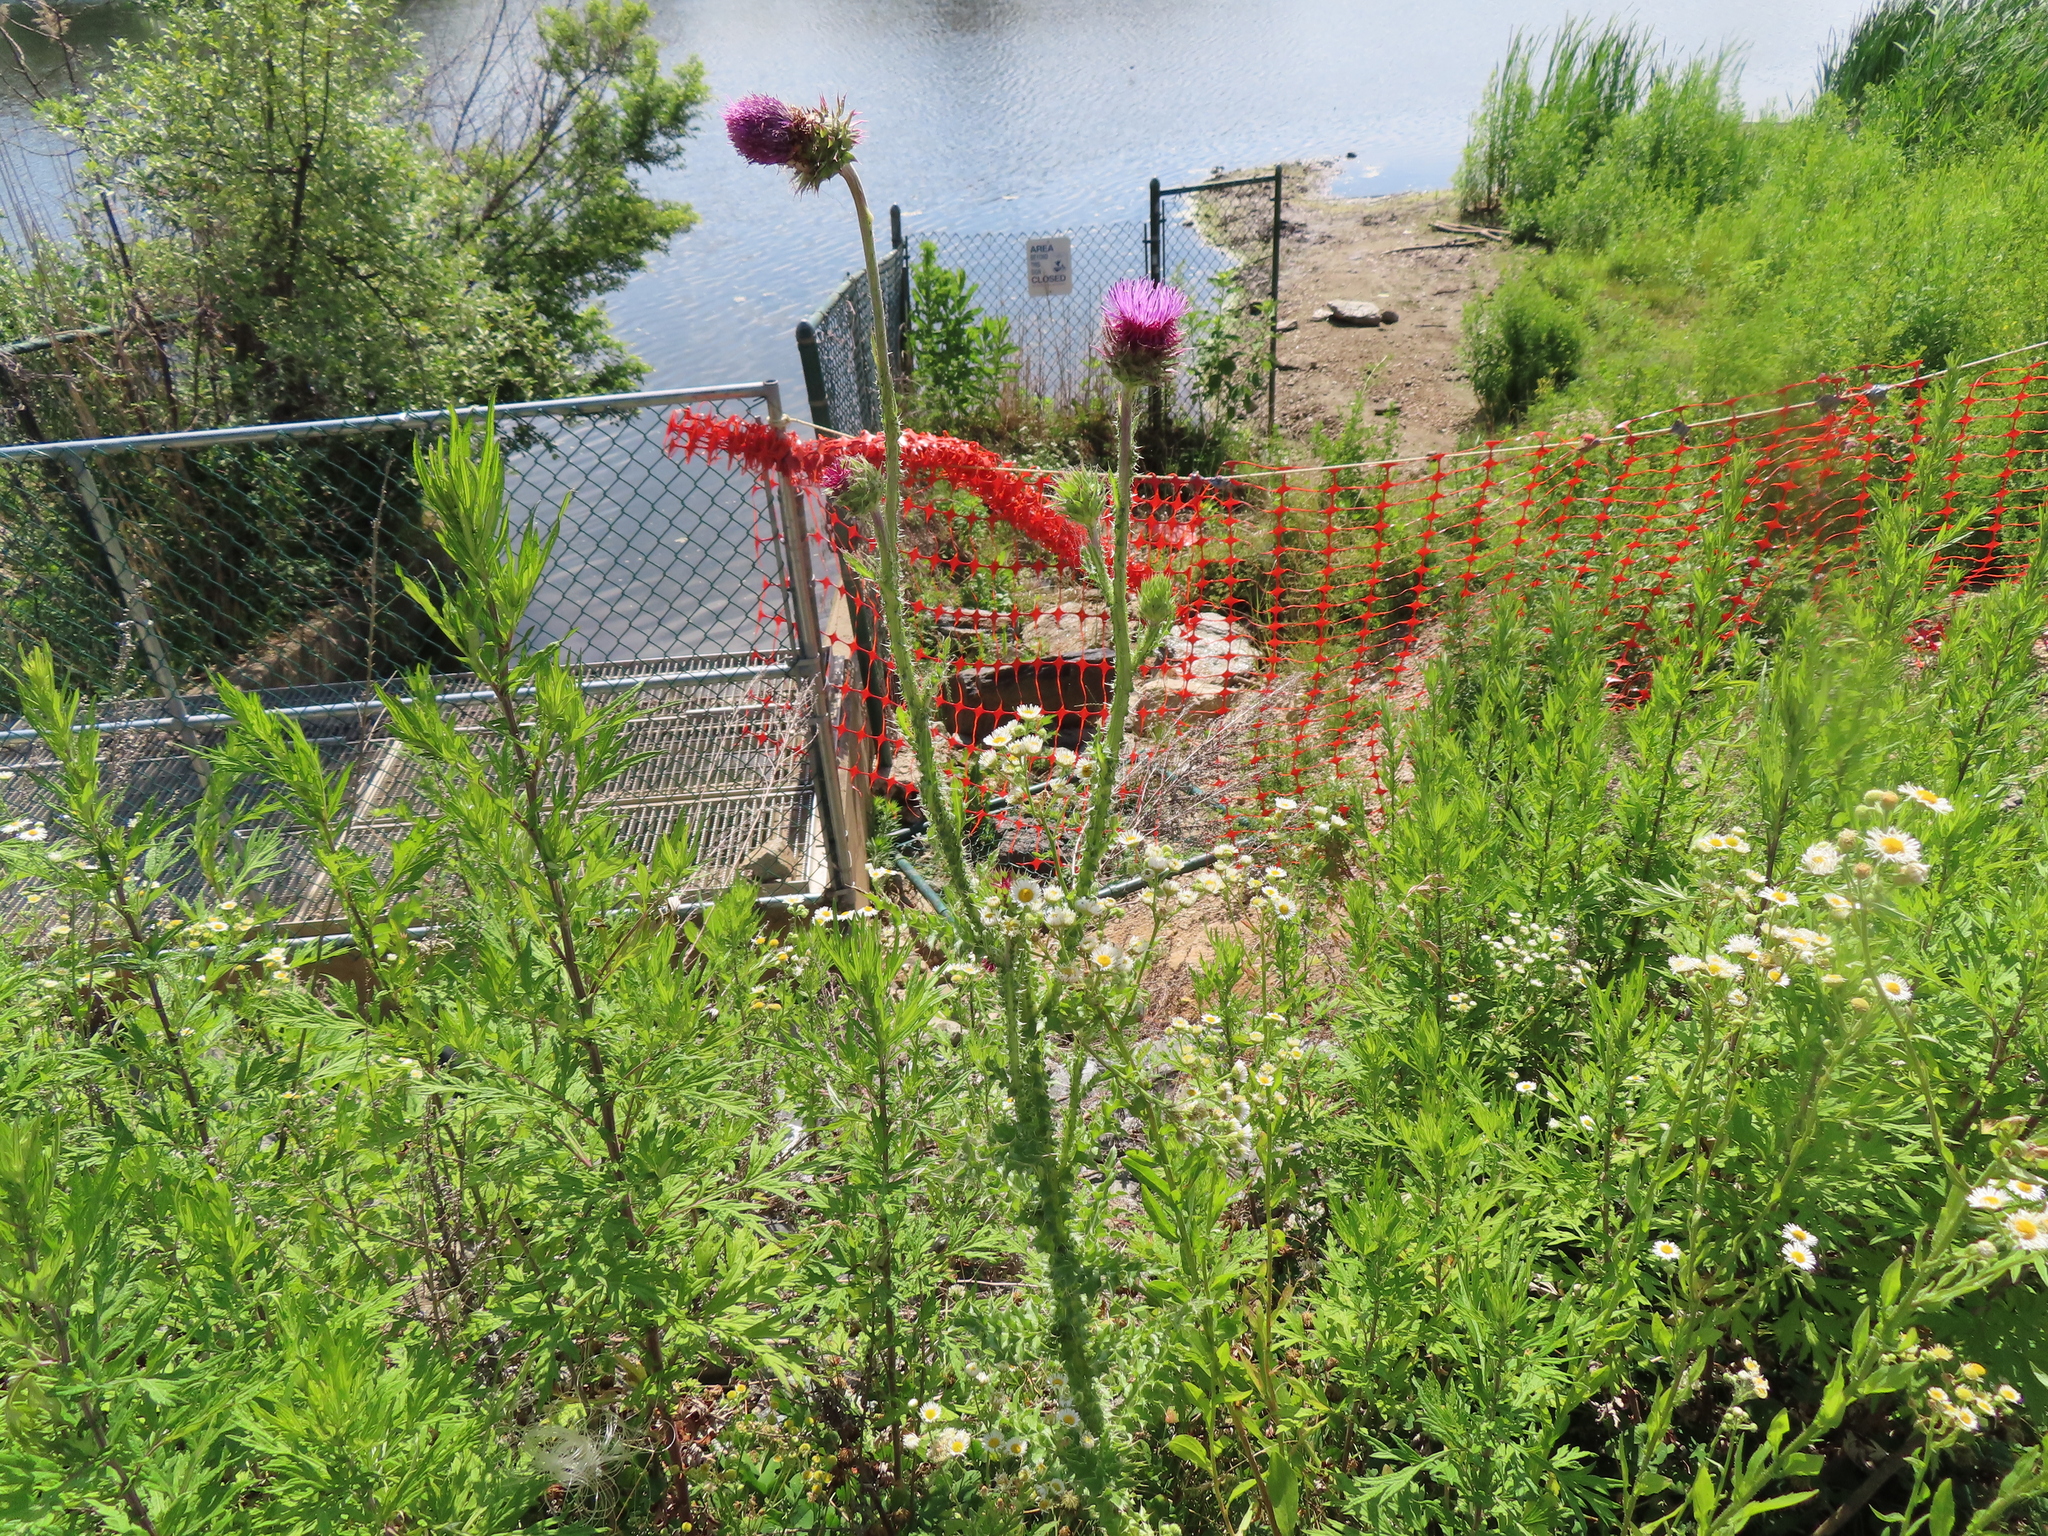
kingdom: Plantae
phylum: Tracheophyta
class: Magnoliopsida
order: Asterales
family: Asteraceae
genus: Carduus
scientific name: Carduus nutans
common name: Musk thistle
